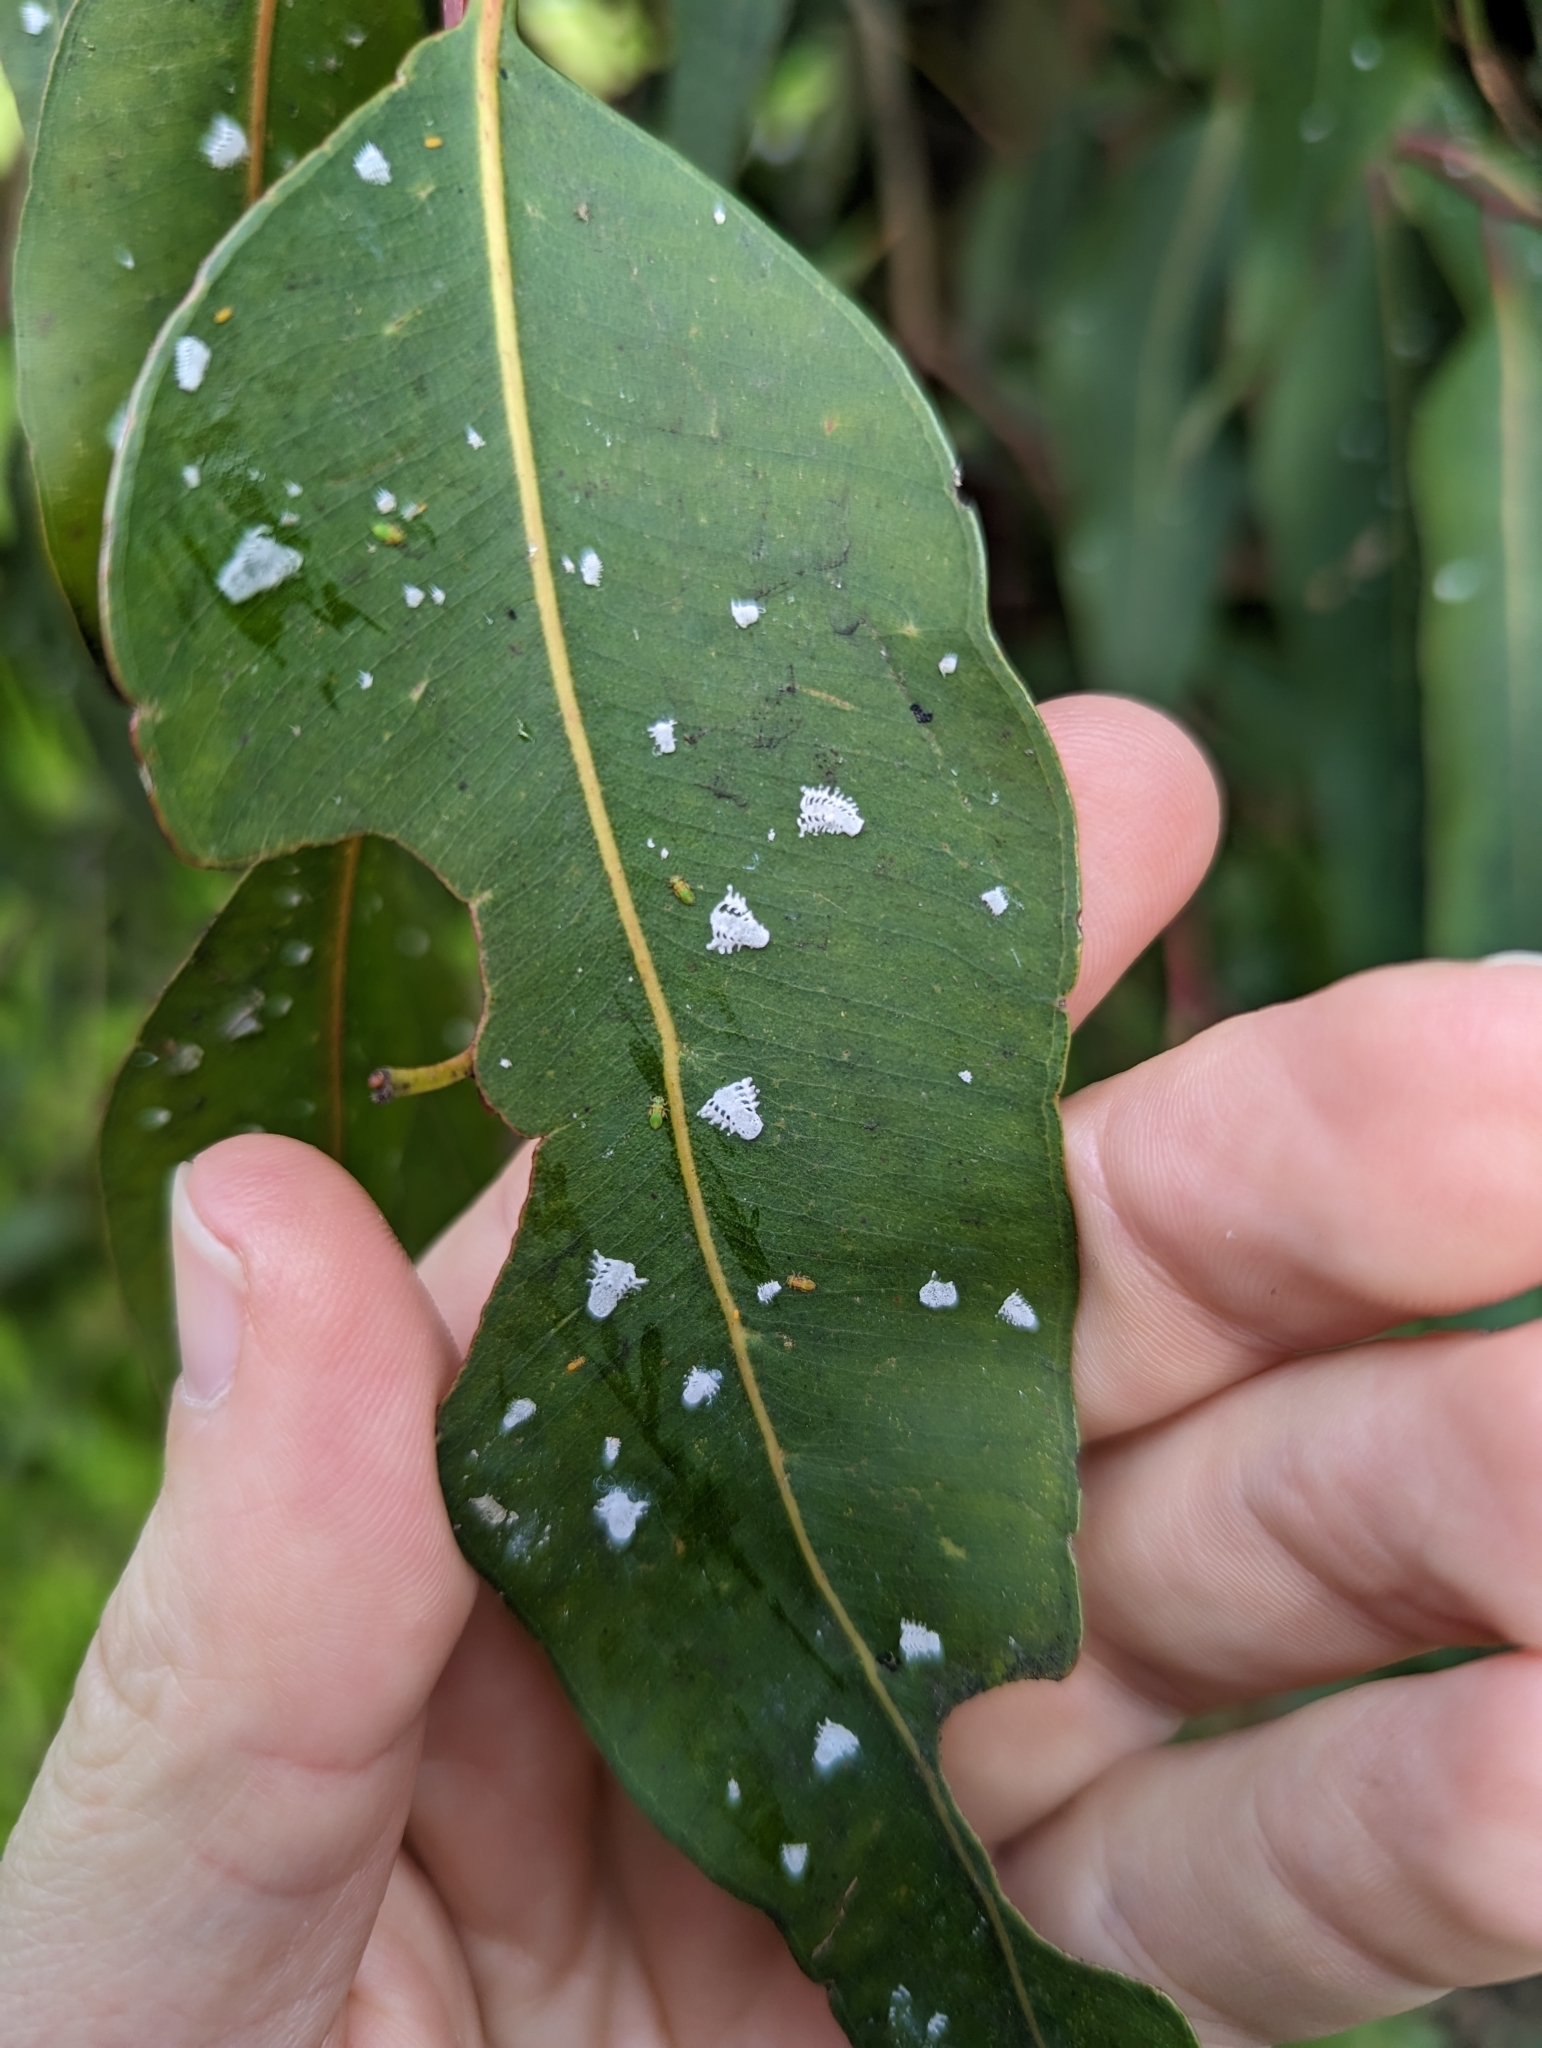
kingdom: Animalia
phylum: Arthropoda
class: Insecta
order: Hemiptera
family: Aphalaridae
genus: Eucalyptolyma
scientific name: Eucalyptolyma maideni
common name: Spotted gum lerp psyllid
